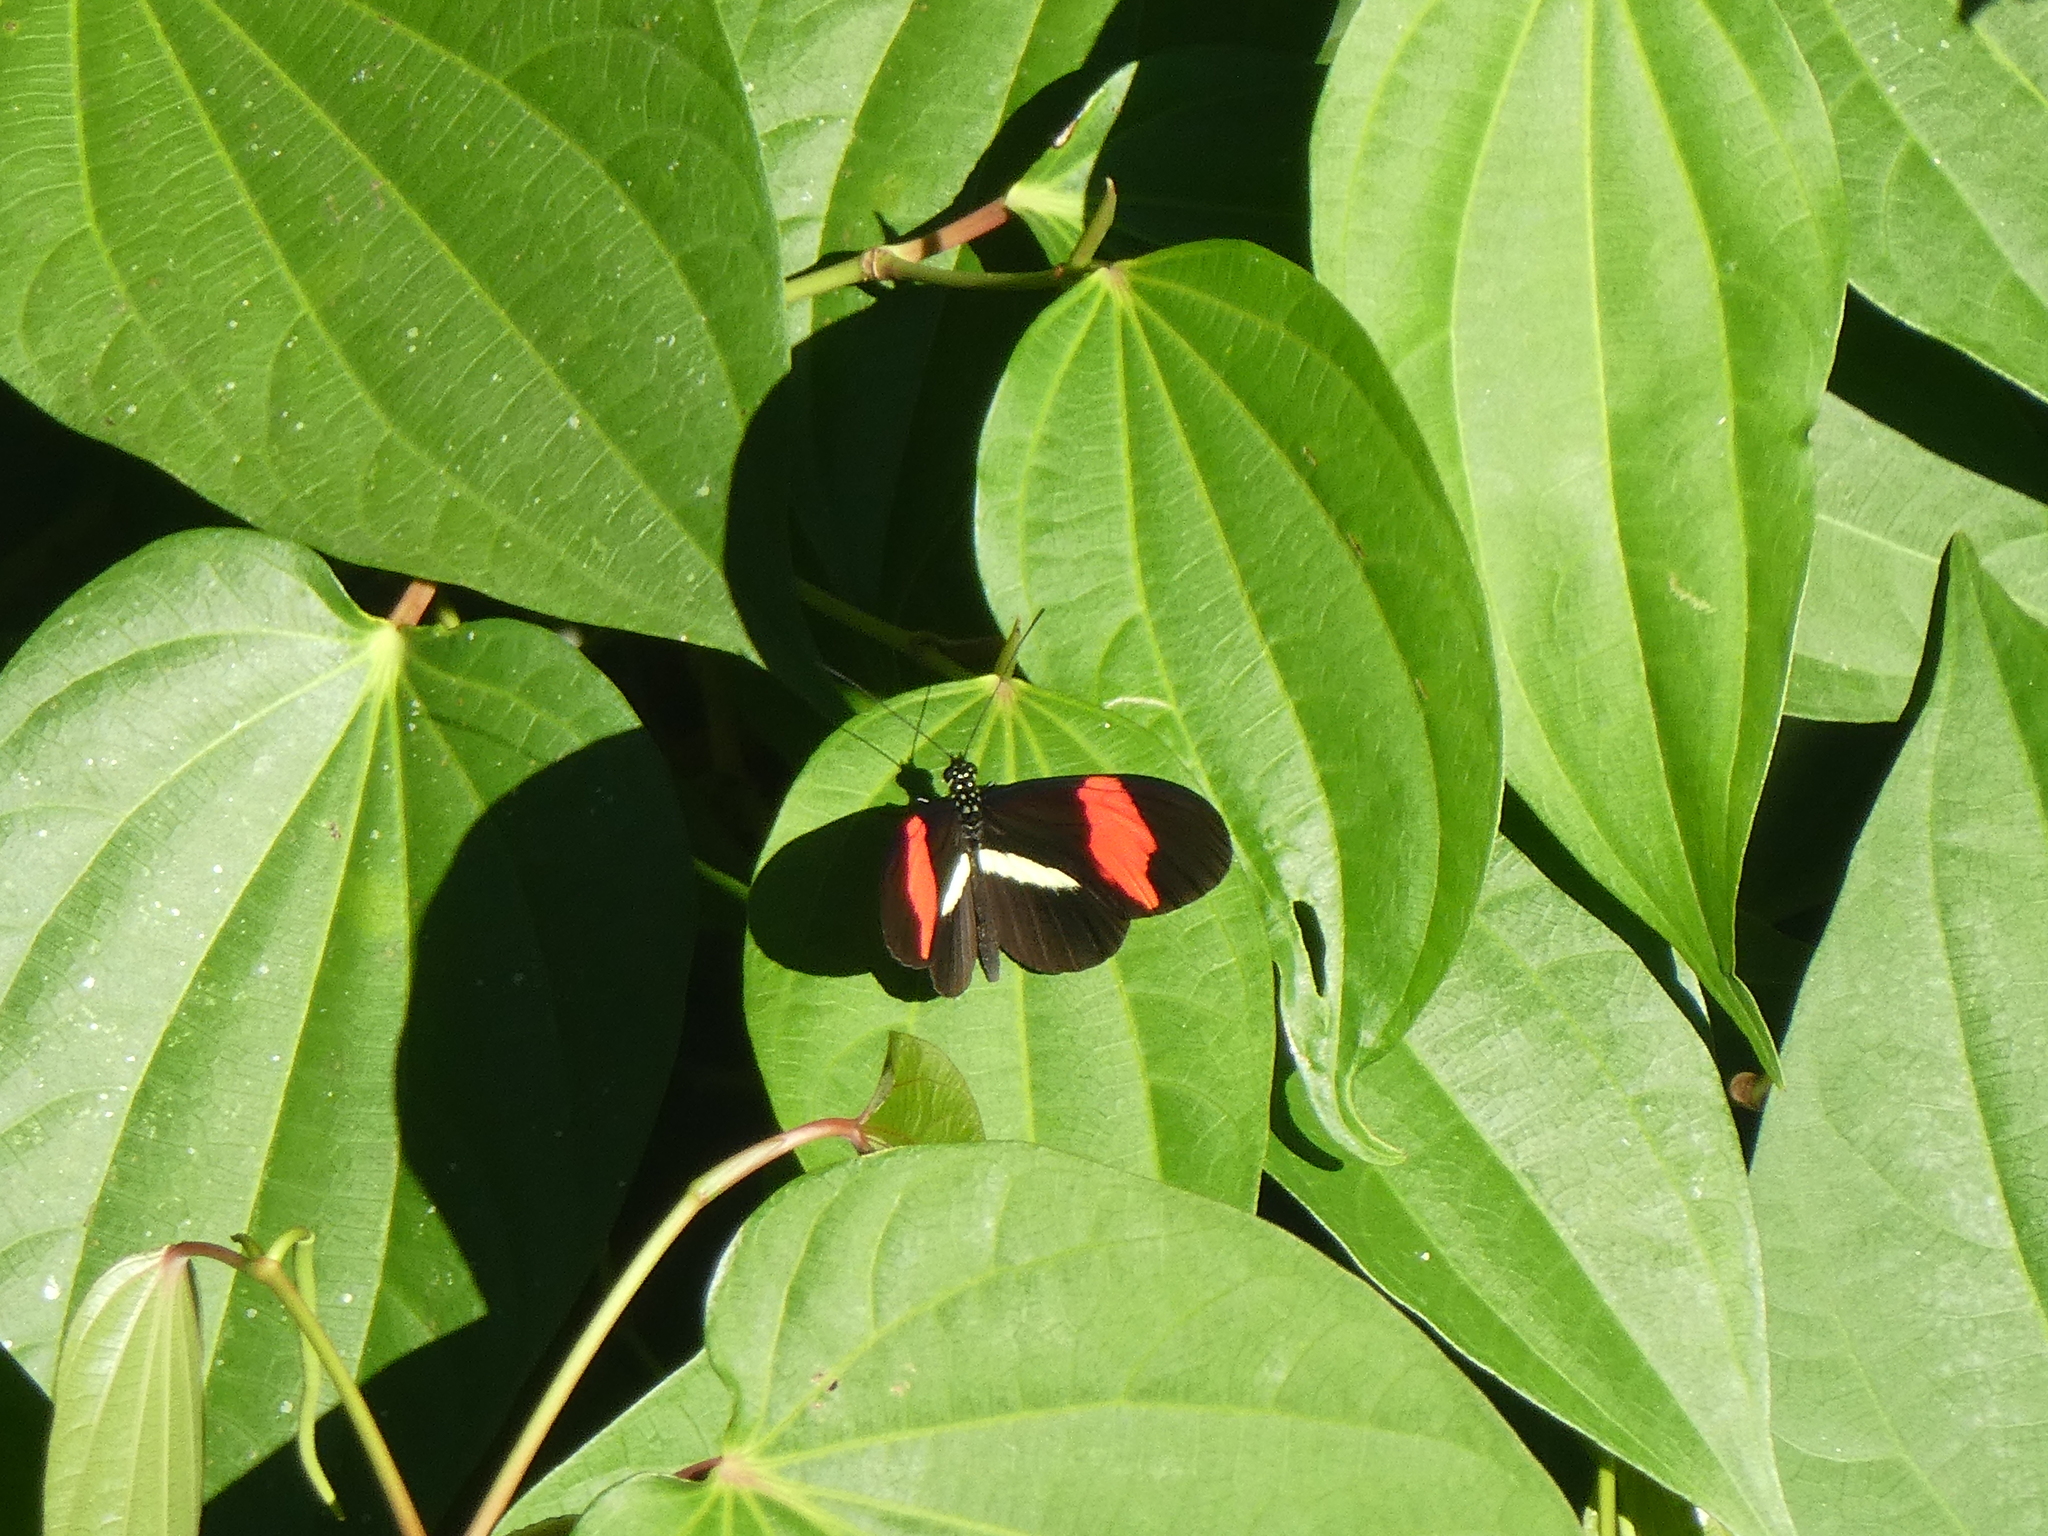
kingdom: Animalia
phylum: Arthropoda
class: Insecta
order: Lepidoptera
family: Nymphalidae
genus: Tirumala
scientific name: Tirumala petiverana
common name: Blue monarch
